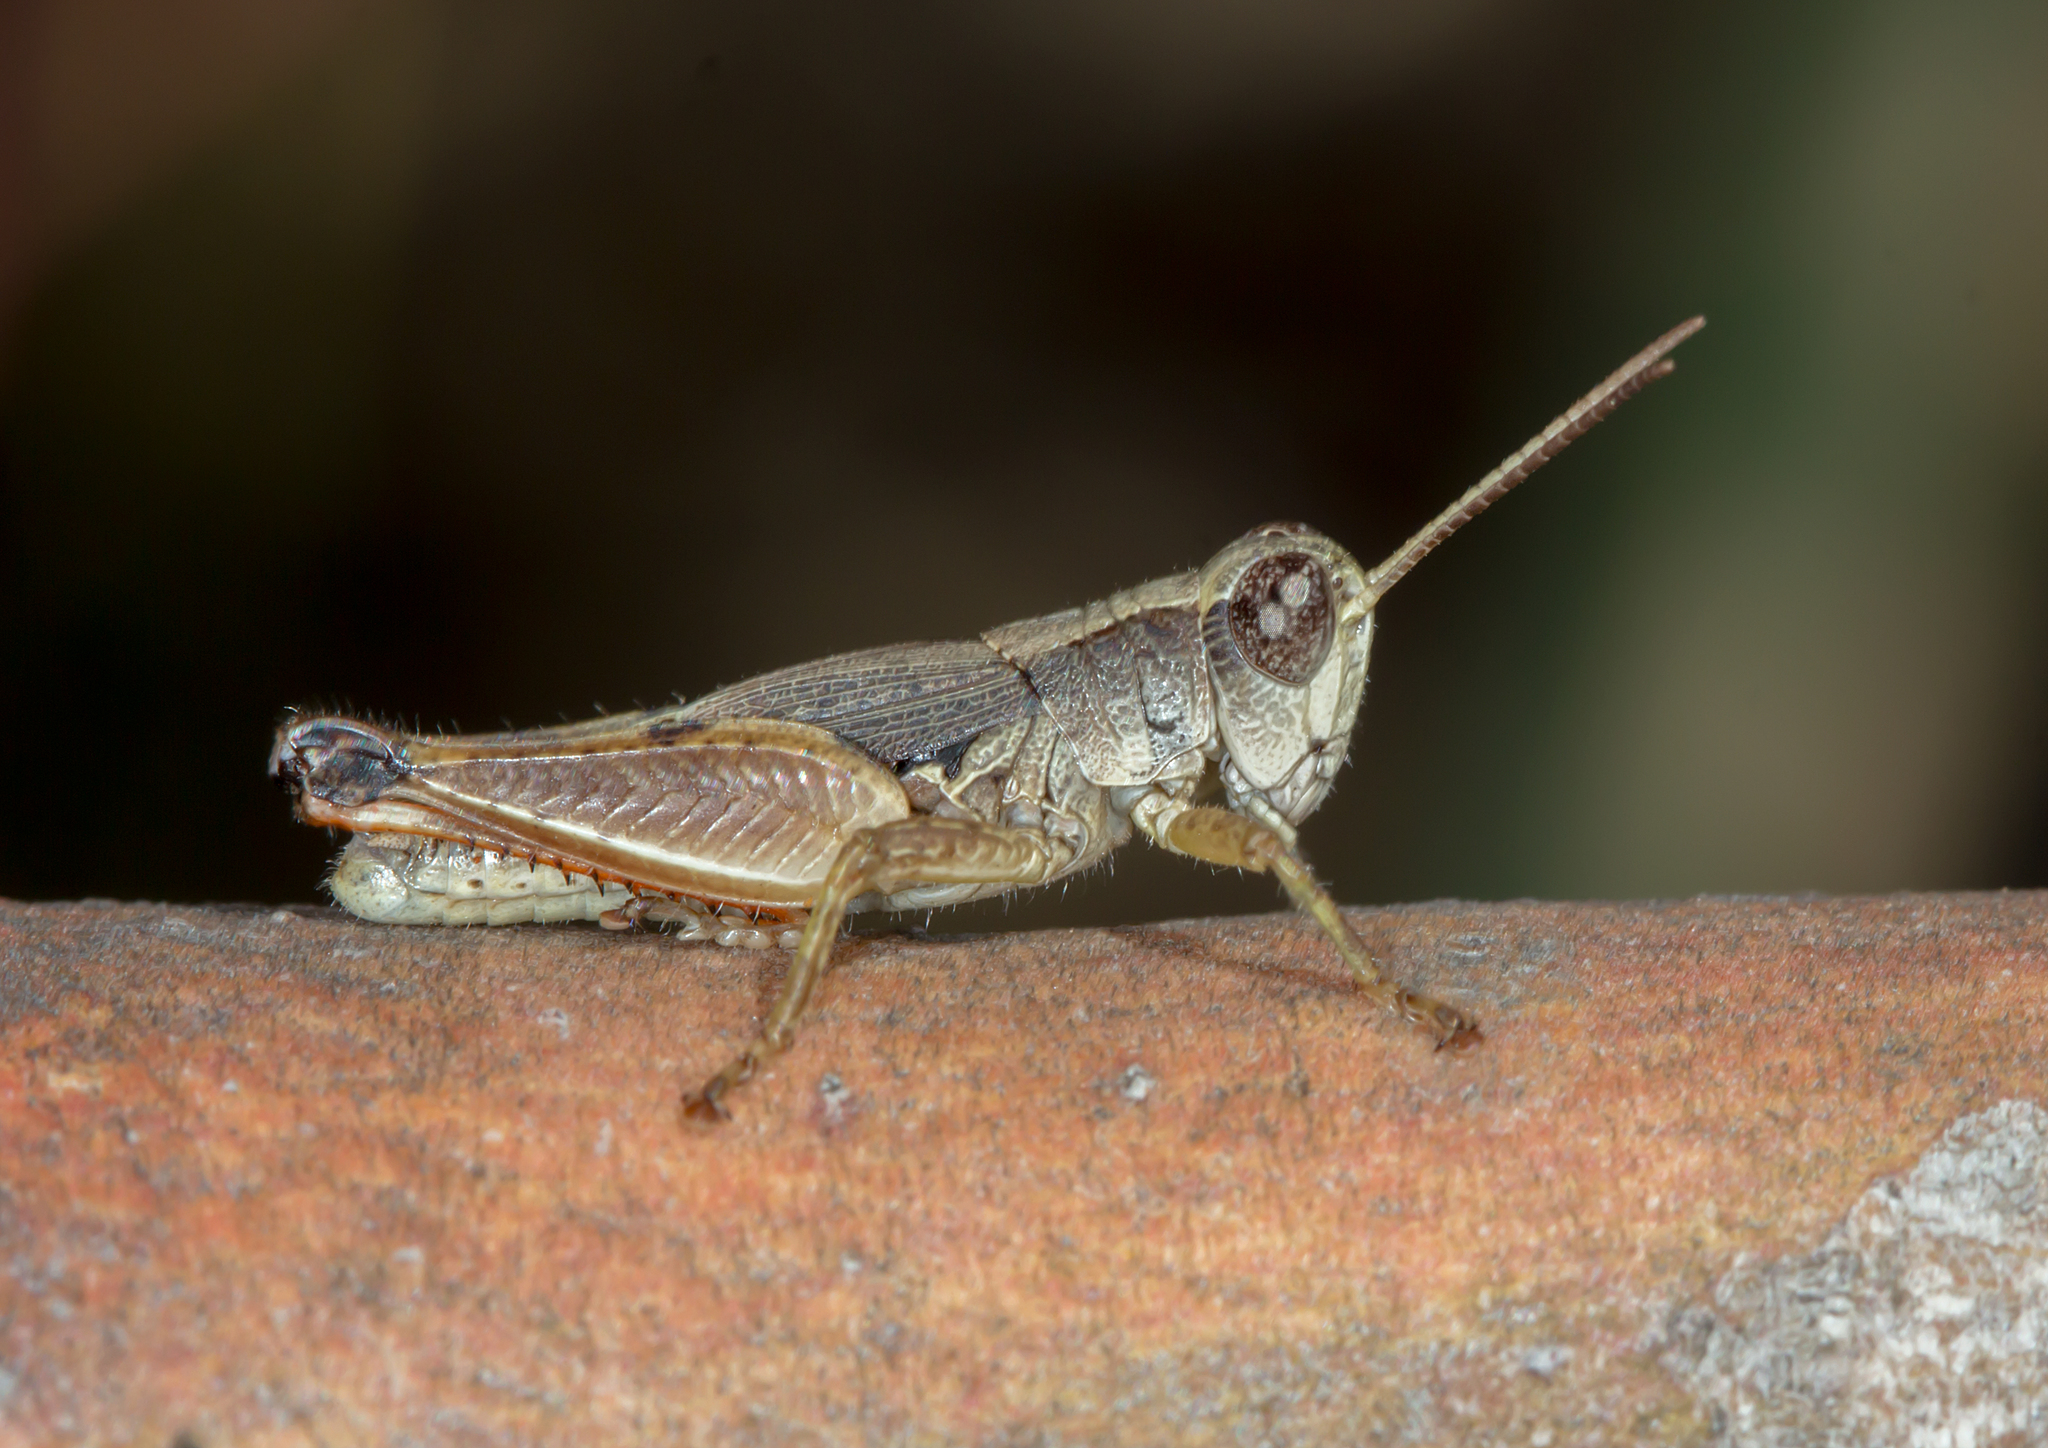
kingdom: Animalia
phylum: Arthropoda
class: Insecta
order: Orthoptera
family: Acrididae
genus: Phaulacridium
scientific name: Phaulacridium vittatum
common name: Wingless grasshopper
